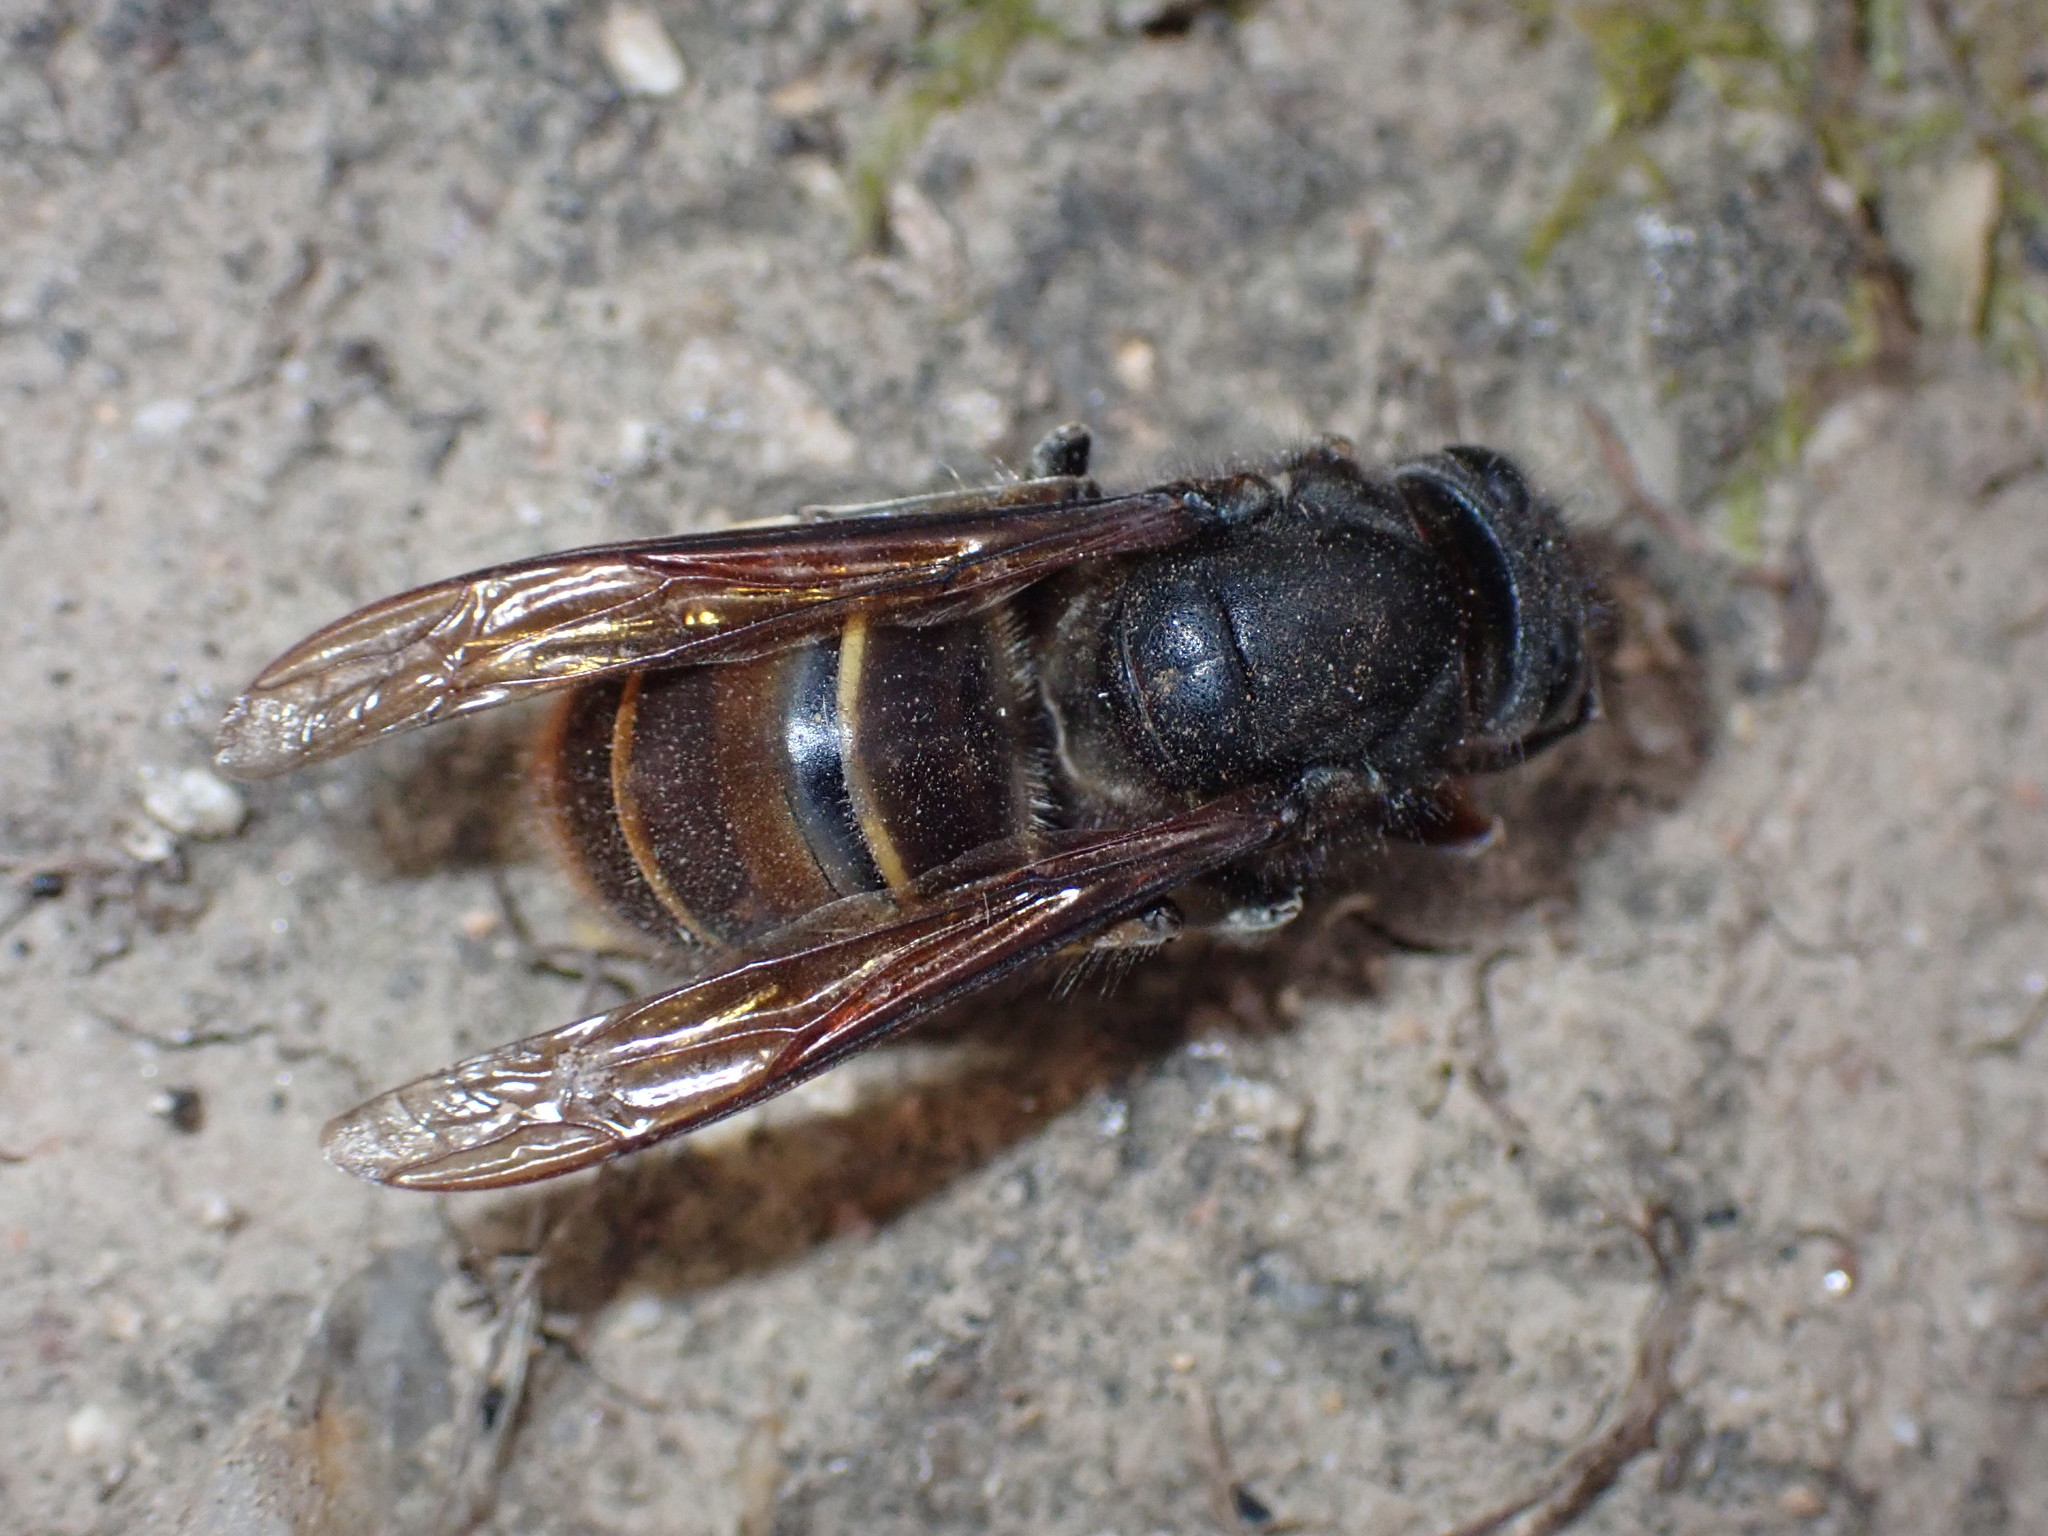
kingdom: Animalia
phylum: Arthropoda
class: Insecta
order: Hymenoptera
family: Vespidae
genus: Vespa
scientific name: Vespa velutina
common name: Asian hornet
